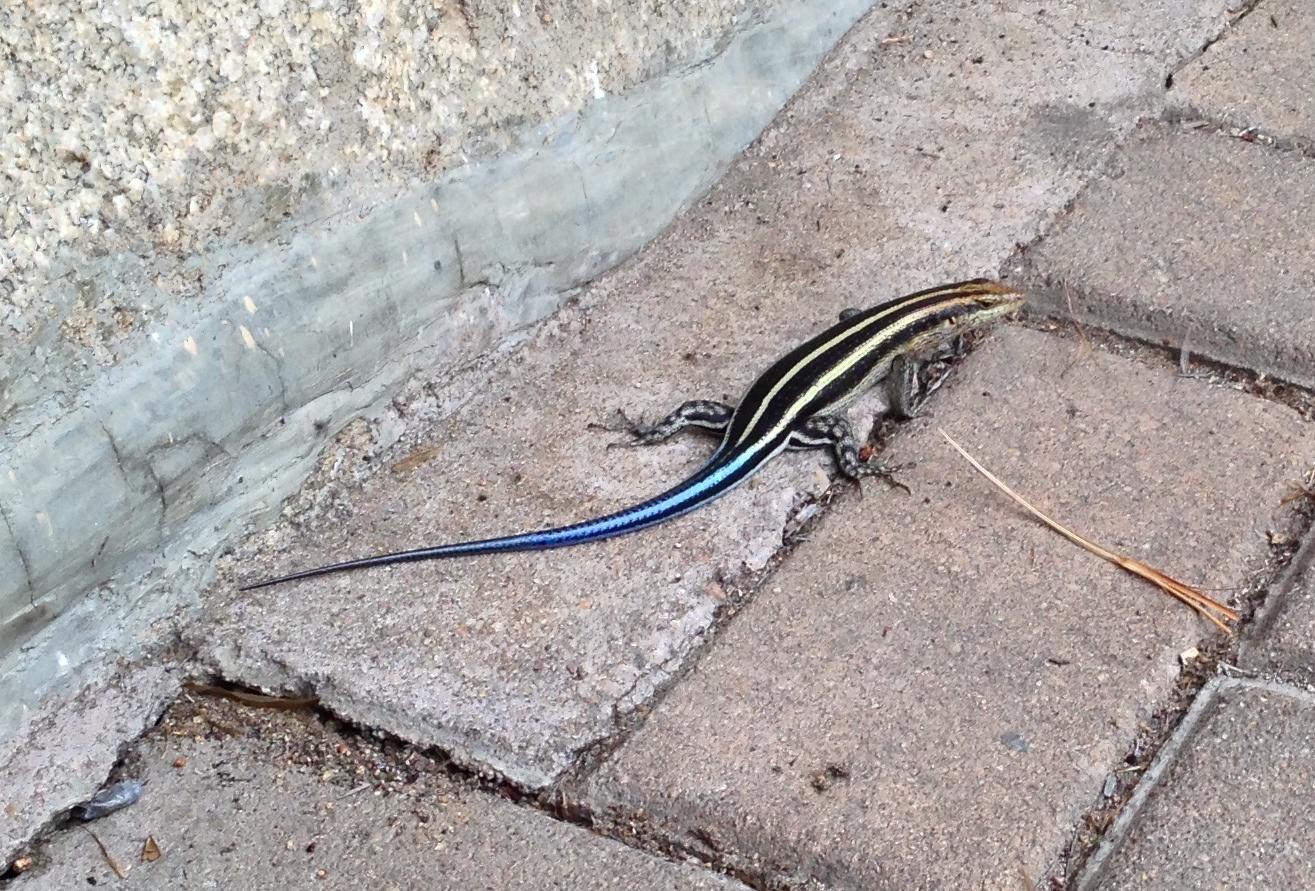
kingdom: Animalia
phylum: Chordata
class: Squamata
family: Scincidae
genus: Trachylepis
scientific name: Trachylepis margaritifera
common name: Rainbow skink
